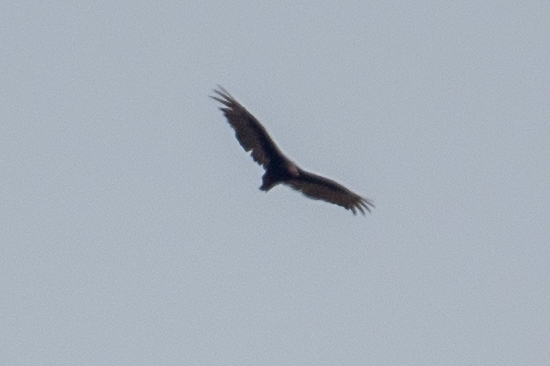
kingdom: Animalia
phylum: Chordata
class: Aves
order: Accipitriformes
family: Cathartidae
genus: Cathartes
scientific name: Cathartes aura
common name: Turkey vulture
